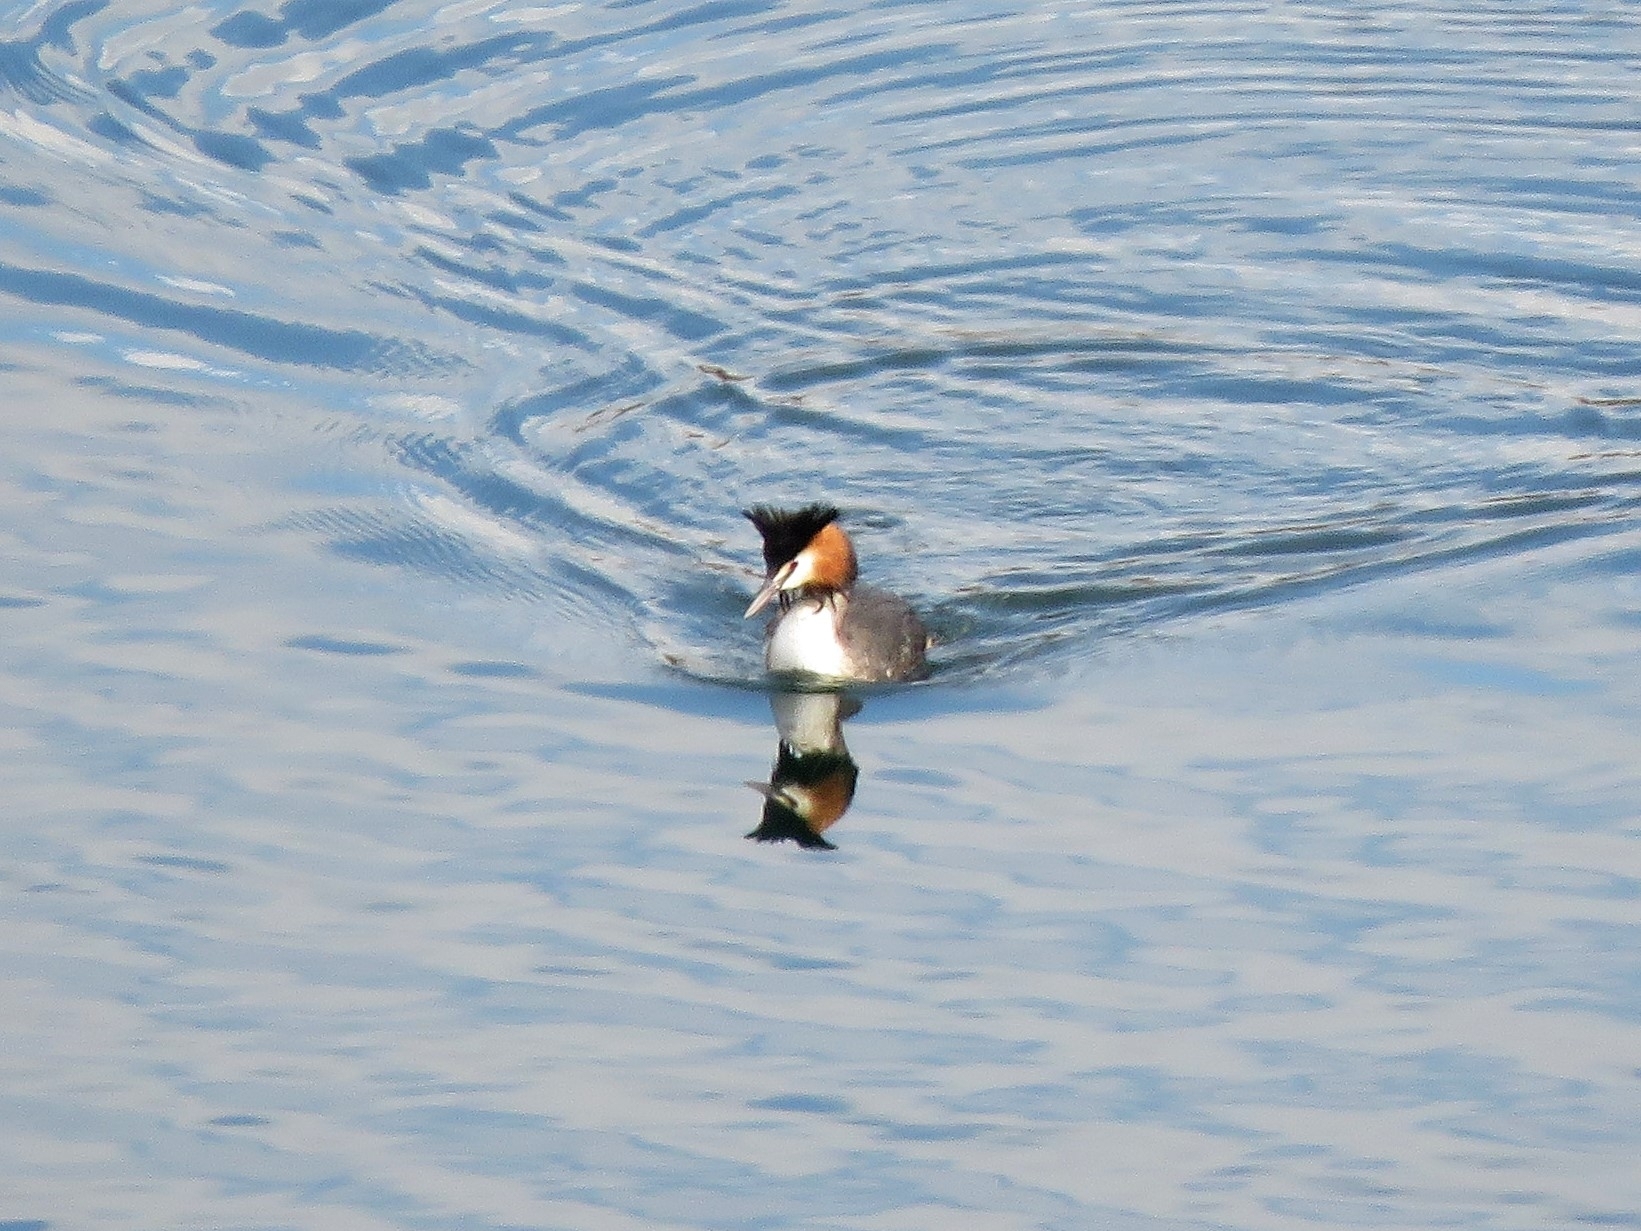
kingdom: Animalia
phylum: Chordata
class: Aves
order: Podicipediformes
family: Podicipedidae
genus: Podiceps
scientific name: Podiceps cristatus
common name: Great crested grebe
